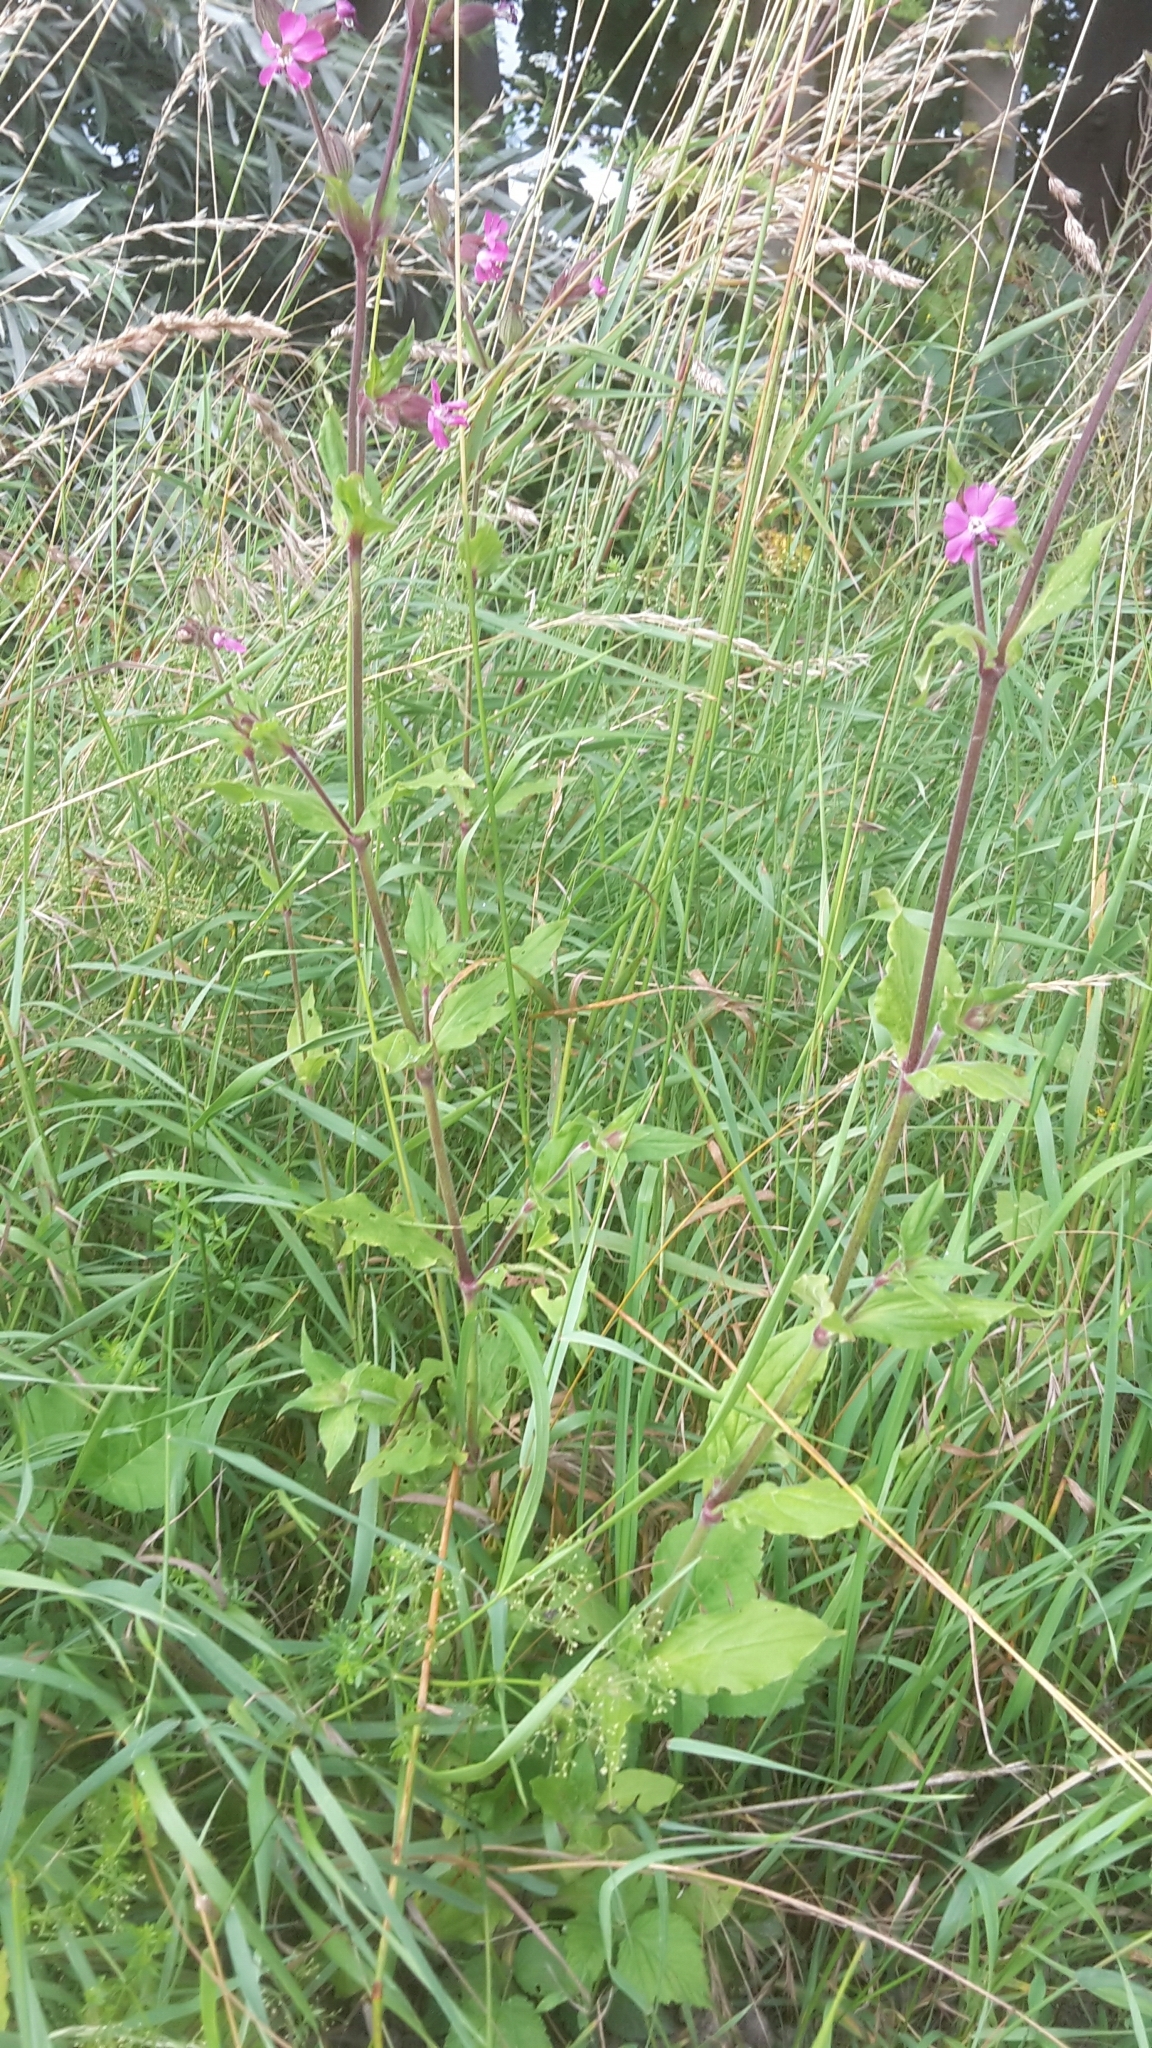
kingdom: Plantae
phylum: Tracheophyta
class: Magnoliopsida
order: Caryophyllales
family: Caryophyllaceae
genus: Silene
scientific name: Silene dioica
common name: Red campion
